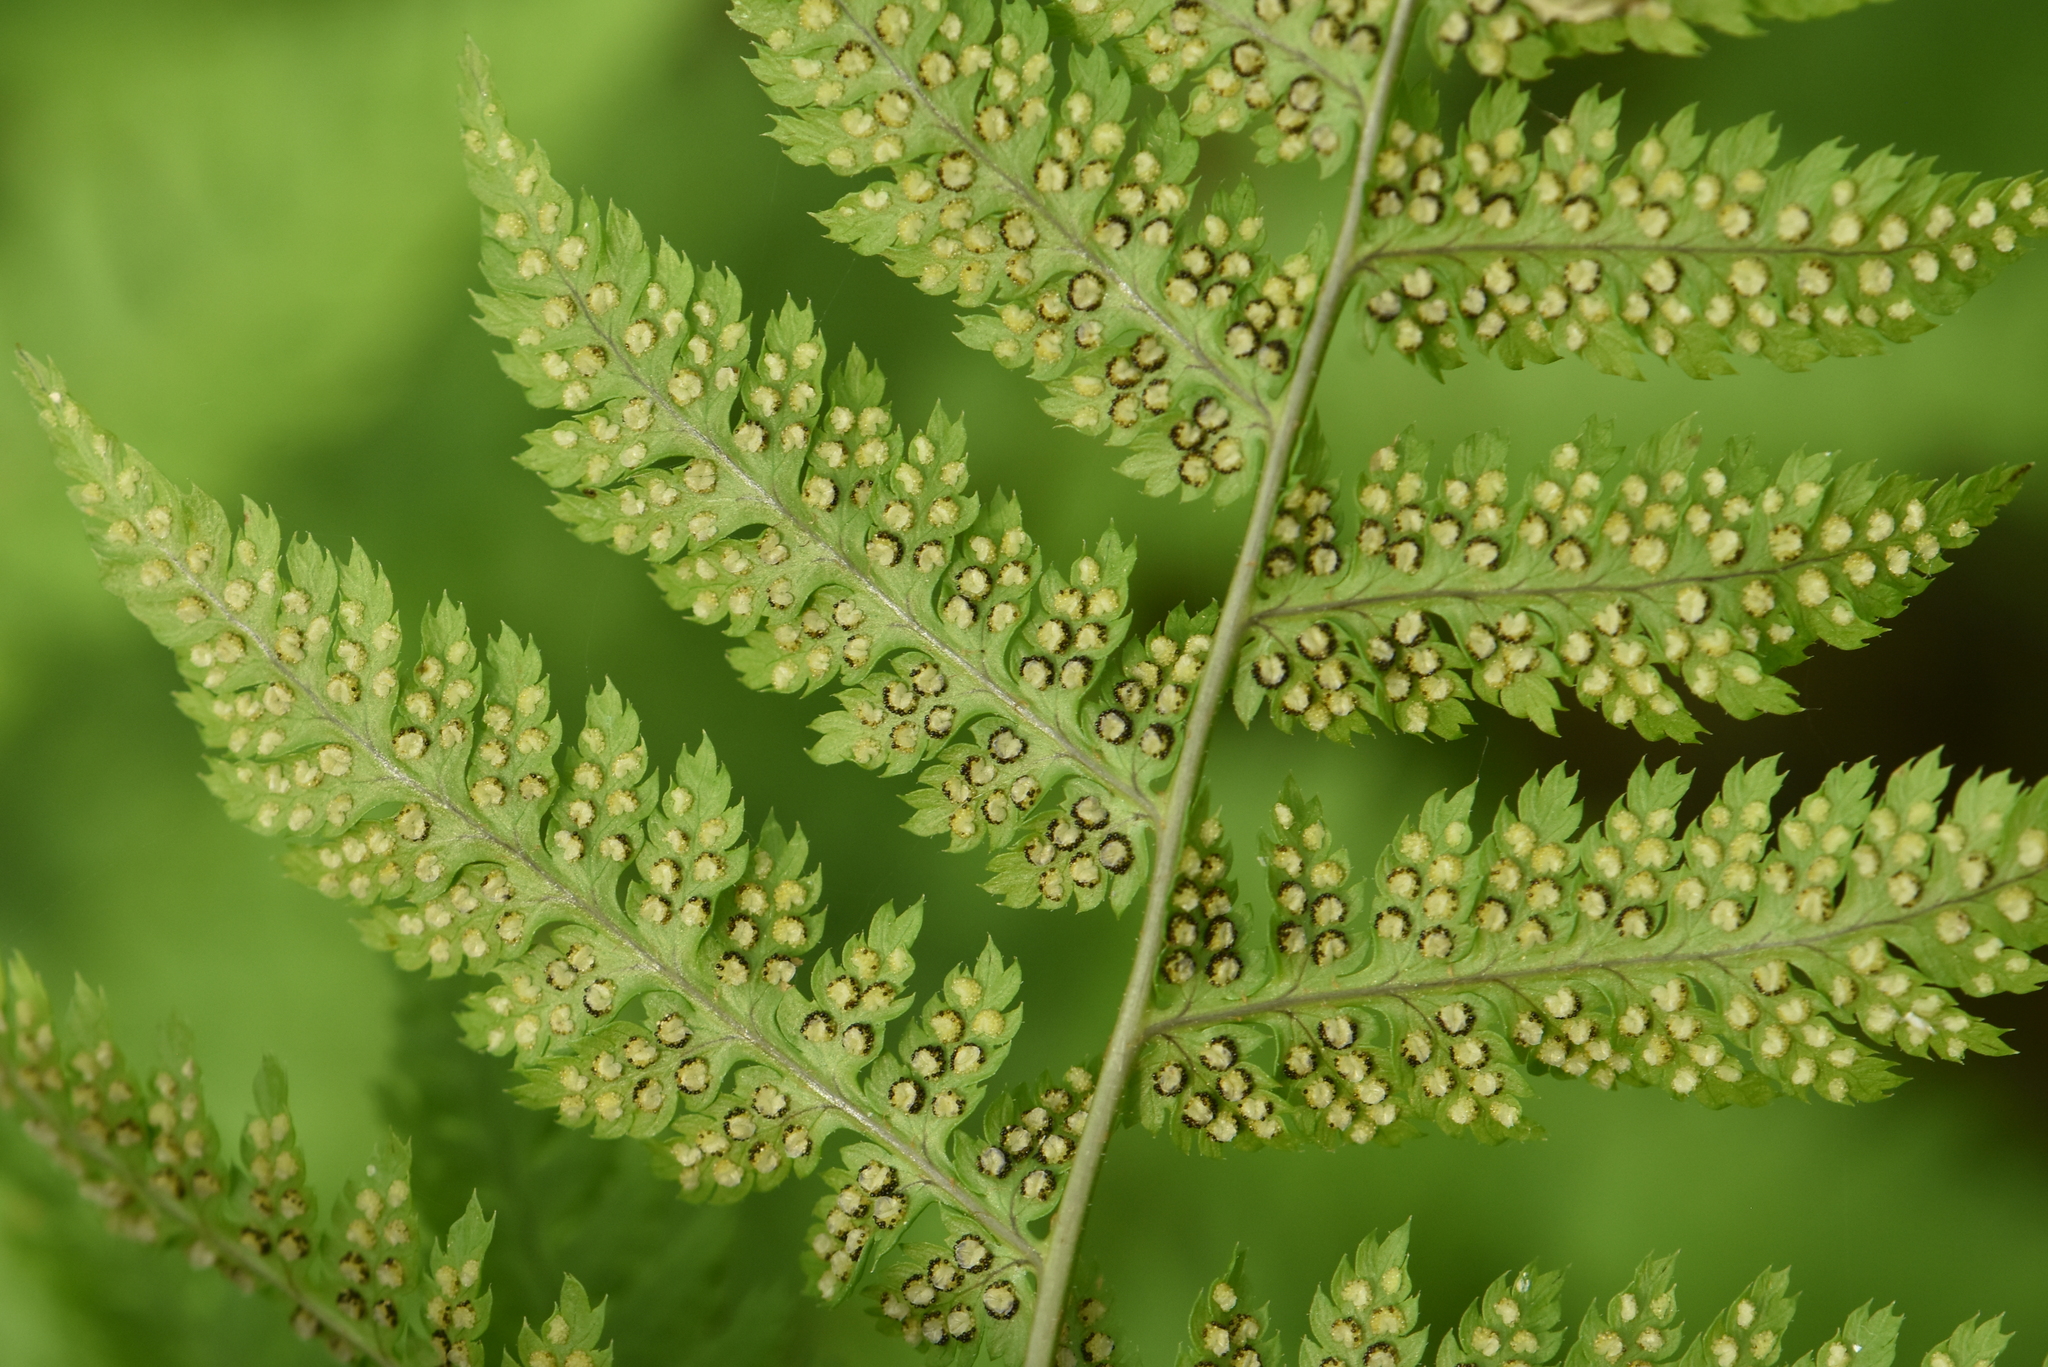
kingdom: Plantae
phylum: Tracheophyta
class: Polypodiopsida
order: Polypodiales
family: Dryopteridaceae
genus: Dryopteris
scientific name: Dryopteris carthusiana
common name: Narrow buckler-fern
